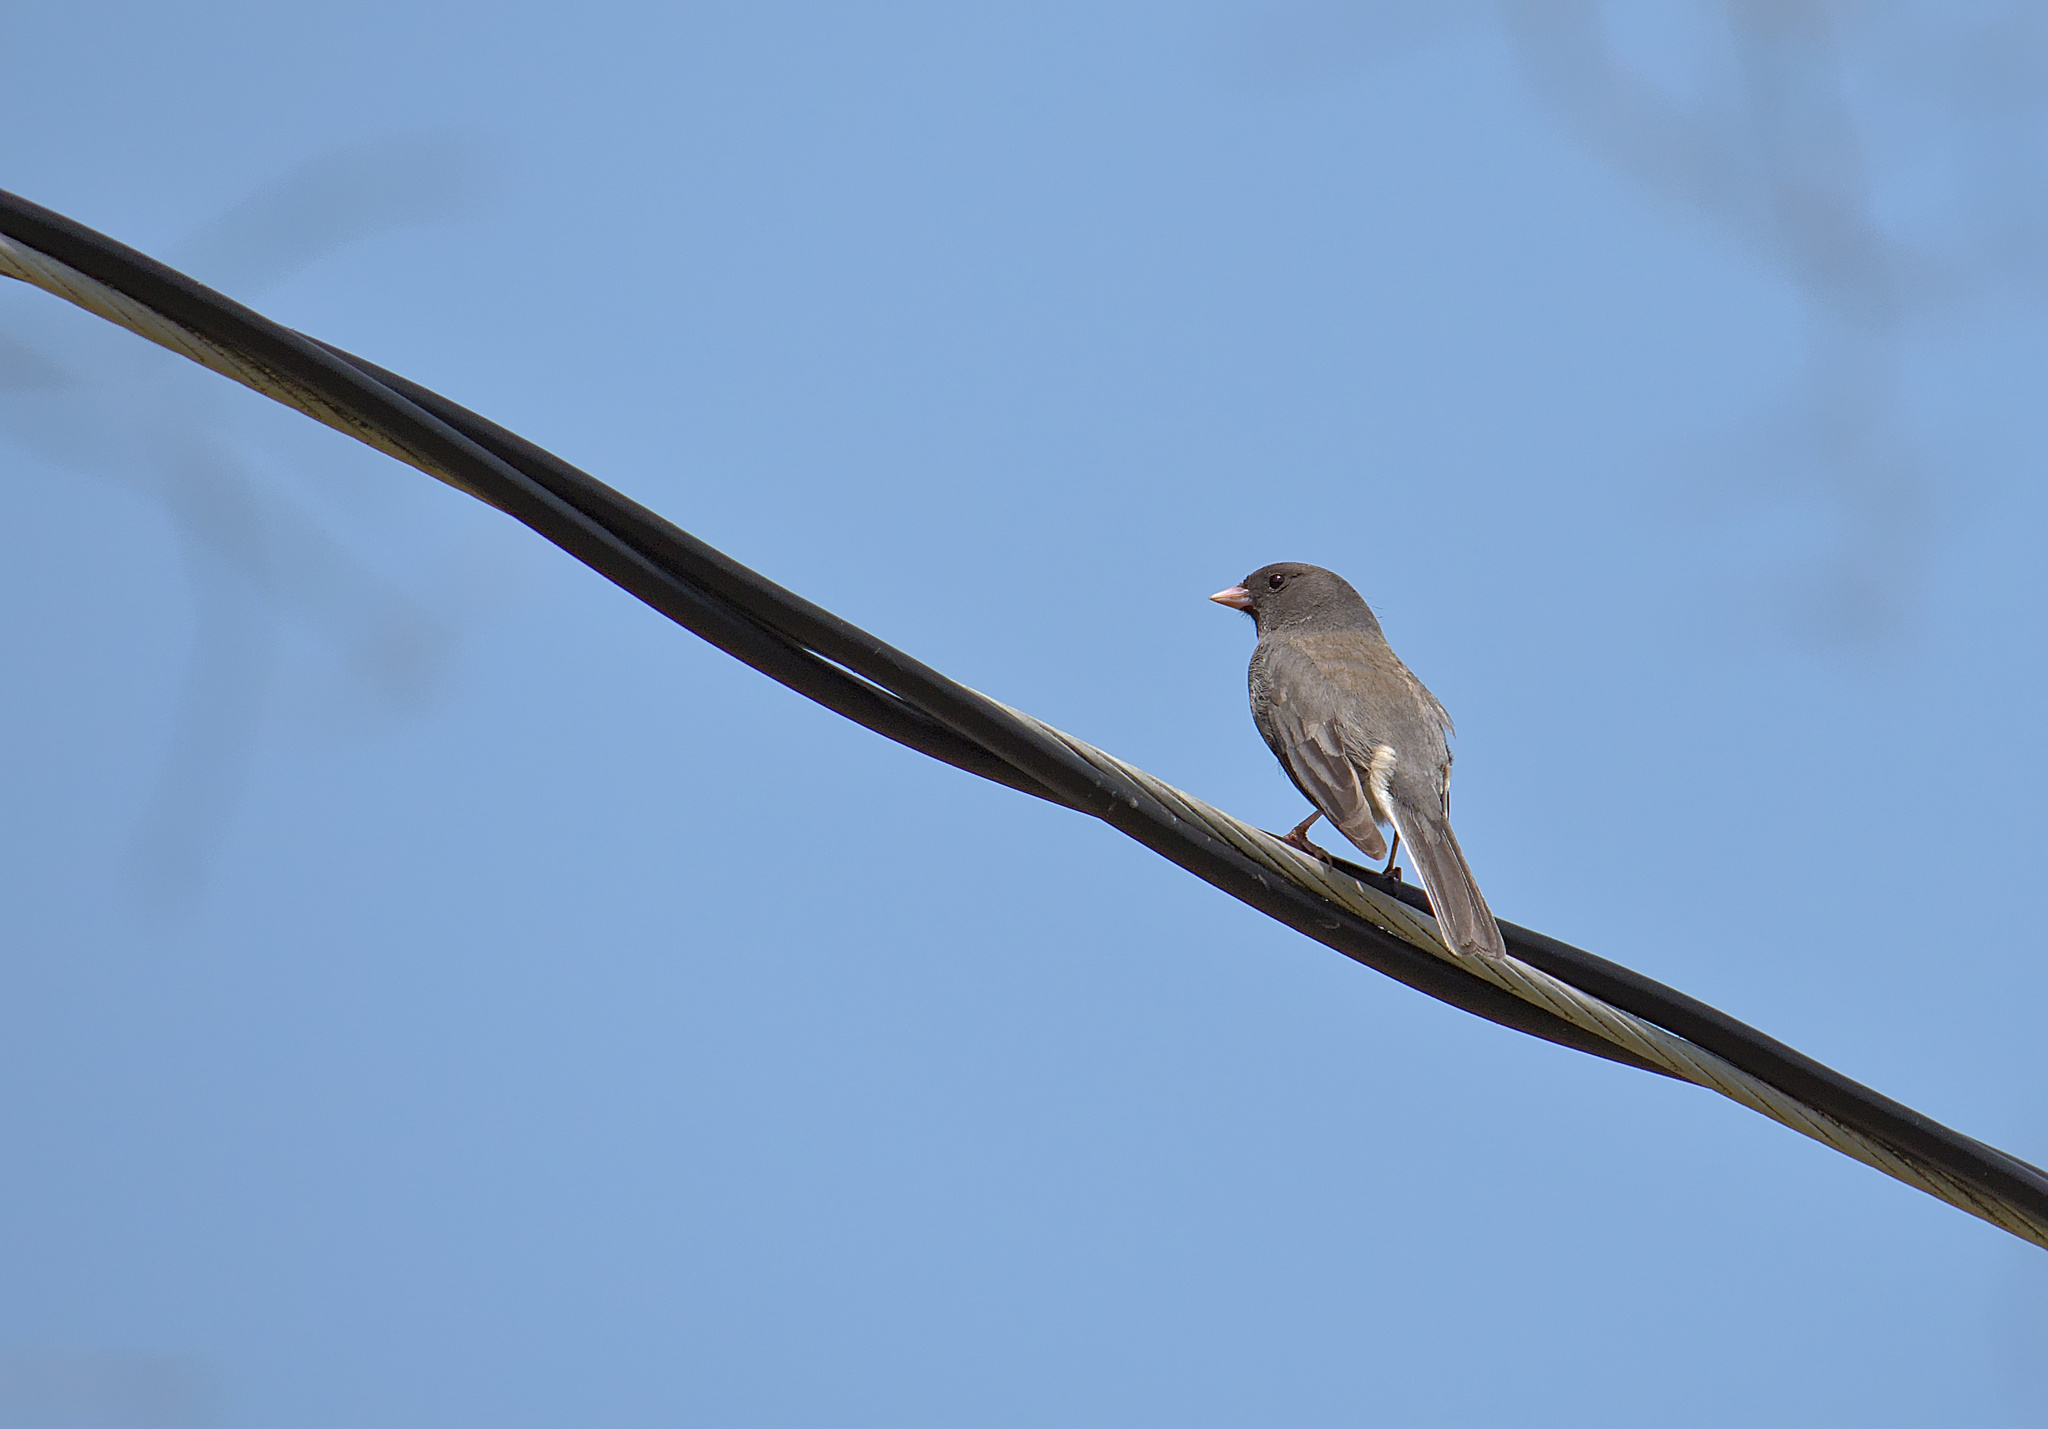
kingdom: Animalia
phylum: Chordata
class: Aves
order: Passeriformes
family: Passerellidae
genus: Junco
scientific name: Junco hyemalis
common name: Dark-eyed junco
